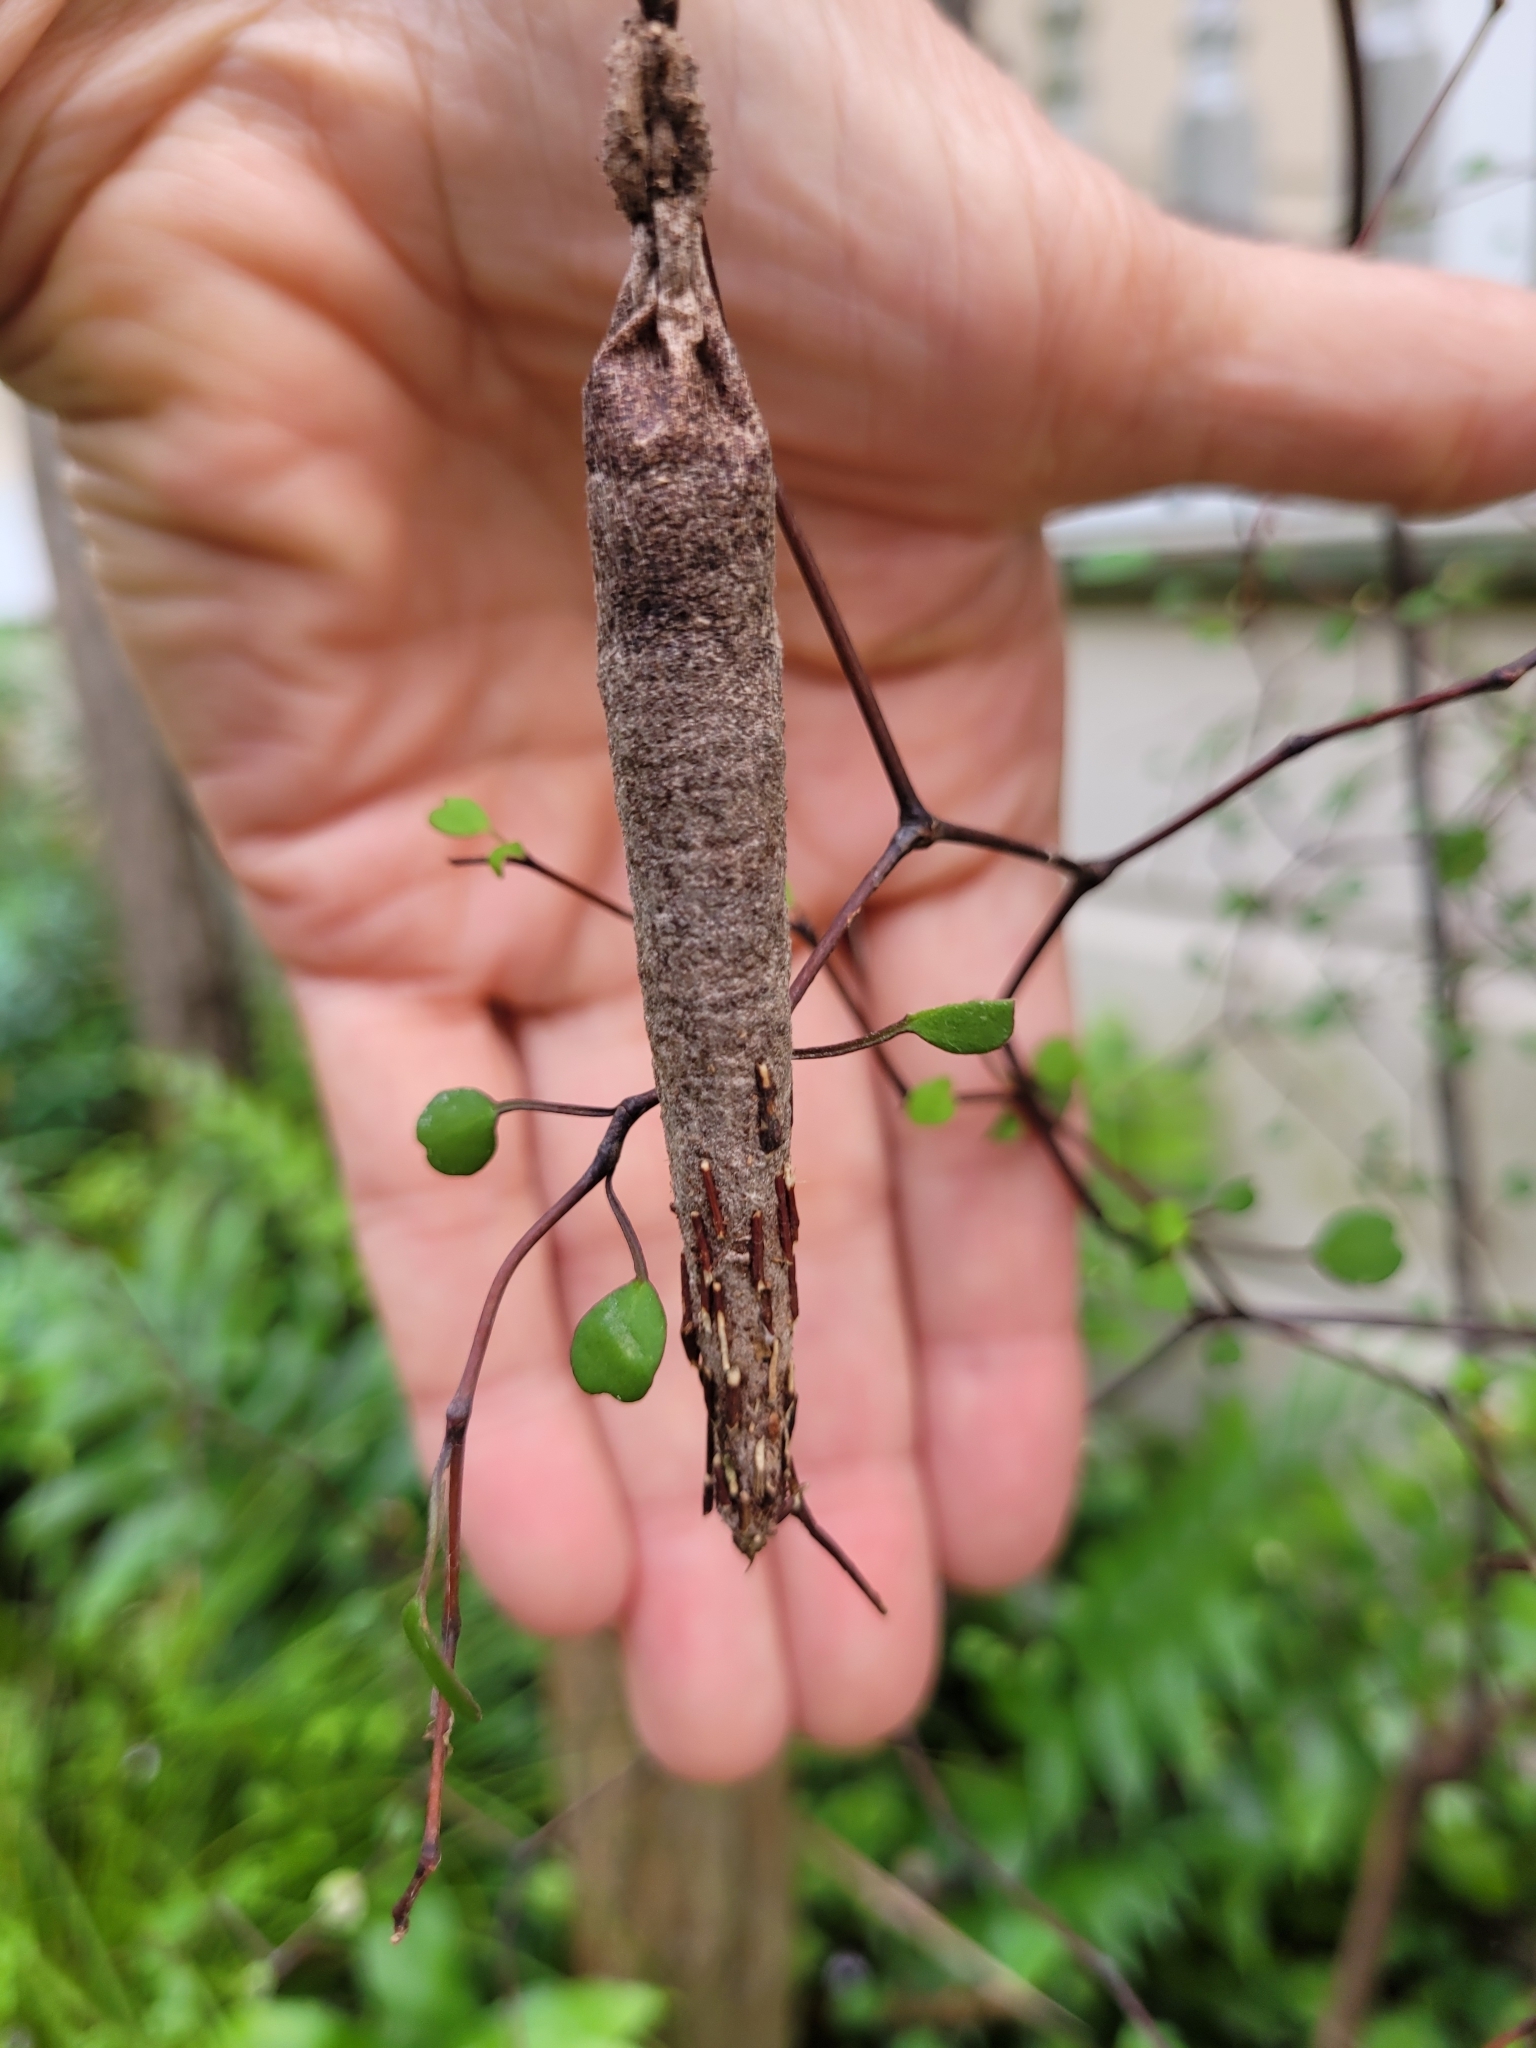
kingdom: Animalia
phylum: Arthropoda
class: Insecta
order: Lepidoptera
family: Psychidae
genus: Liothula
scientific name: Liothula omnivora
